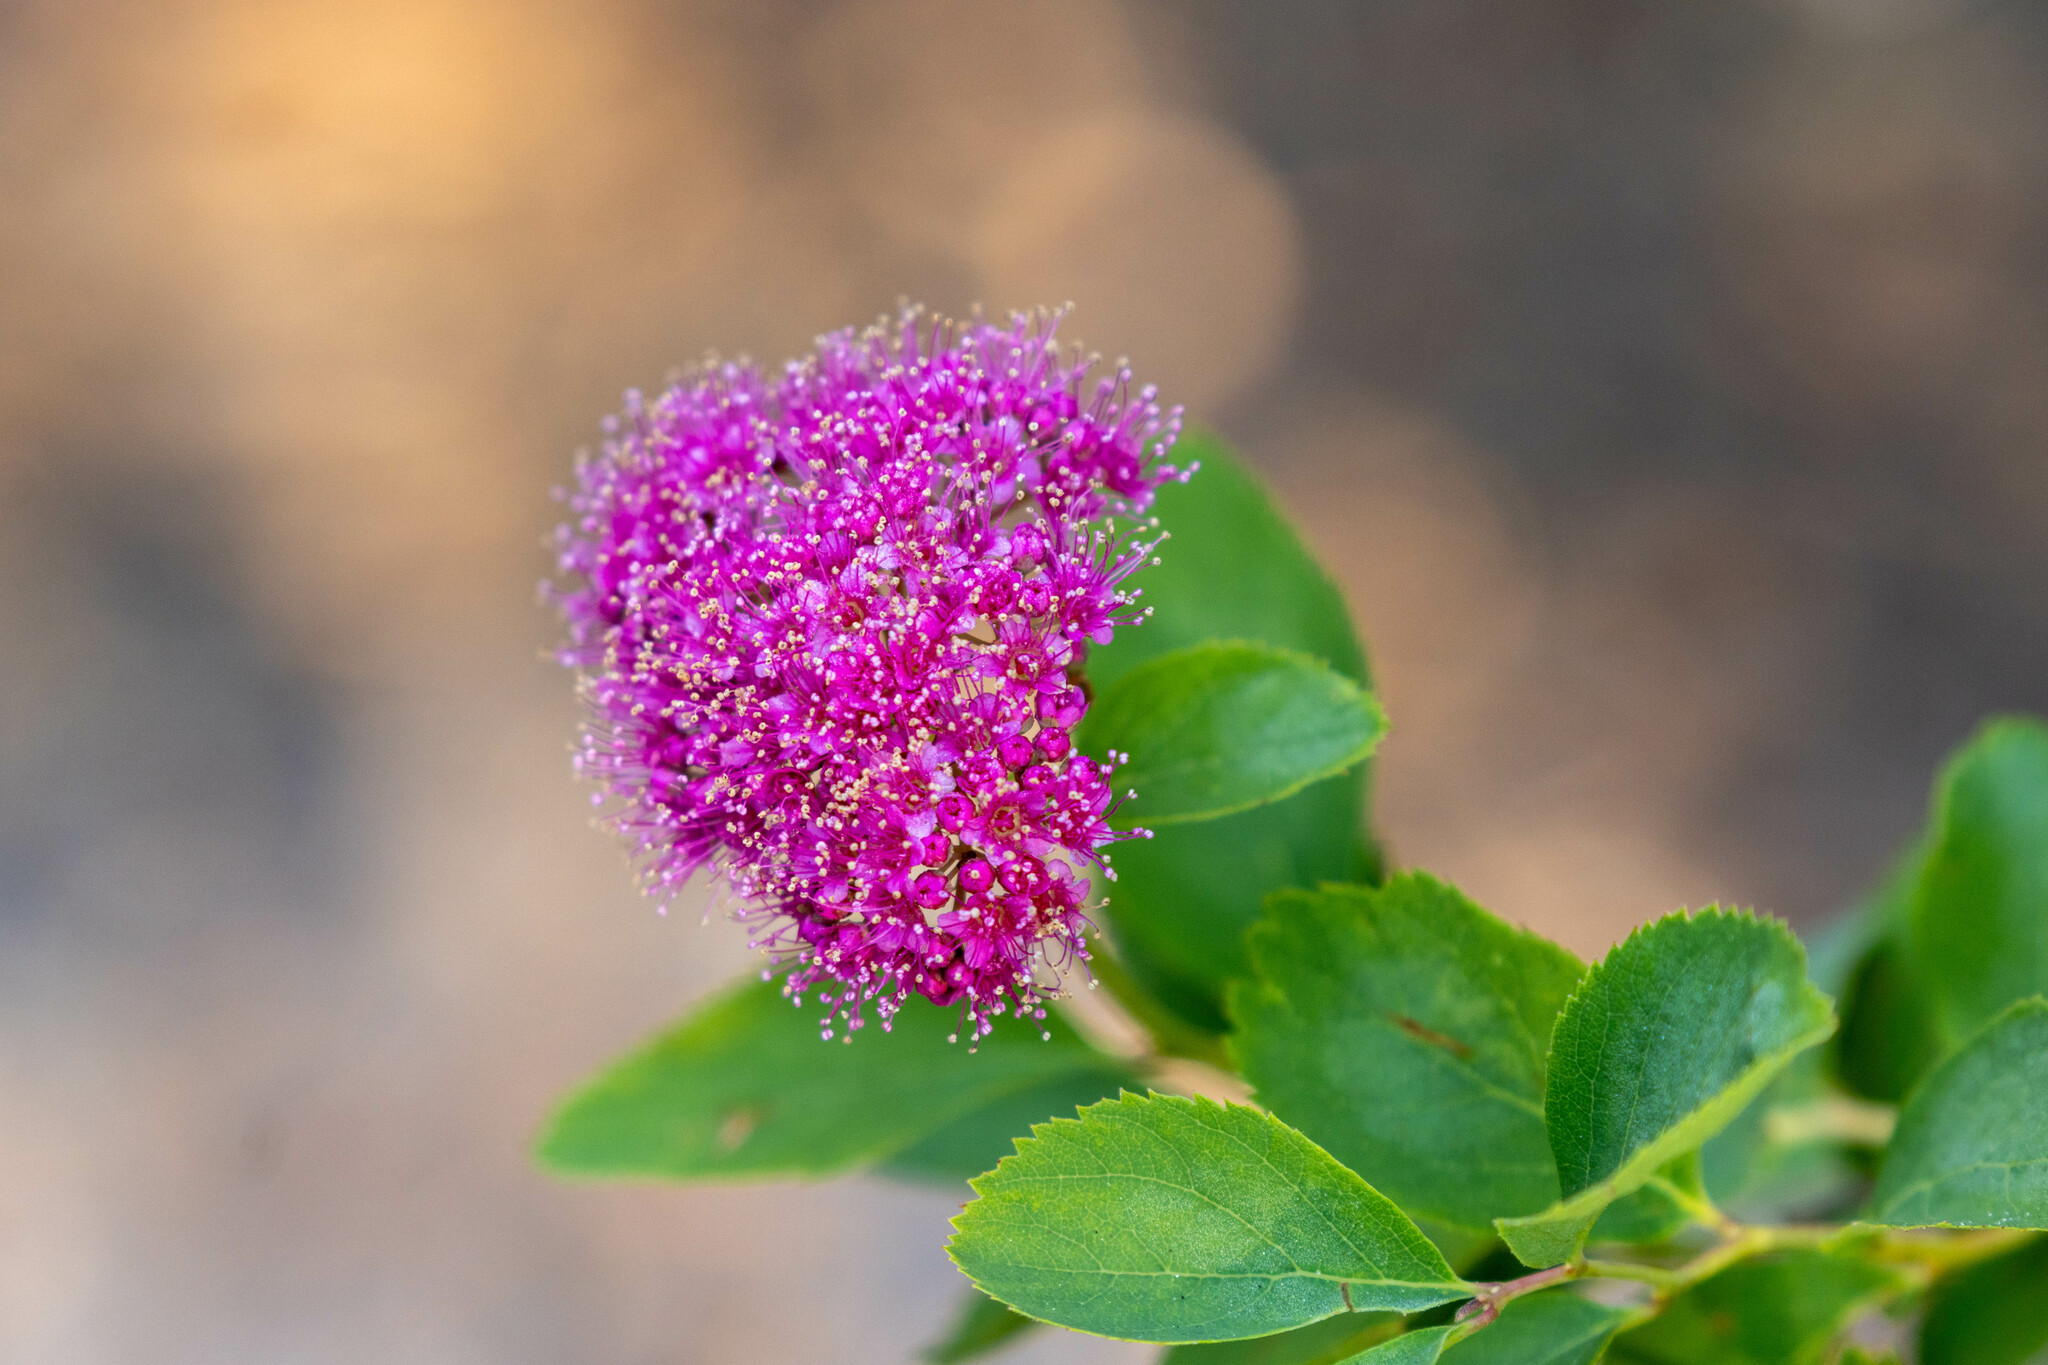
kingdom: Plantae
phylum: Tracheophyta
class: Magnoliopsida
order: Rosales
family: Rosaceae
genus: Spiraea
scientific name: Spiraea splendens
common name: Subalpine meadowsweet
